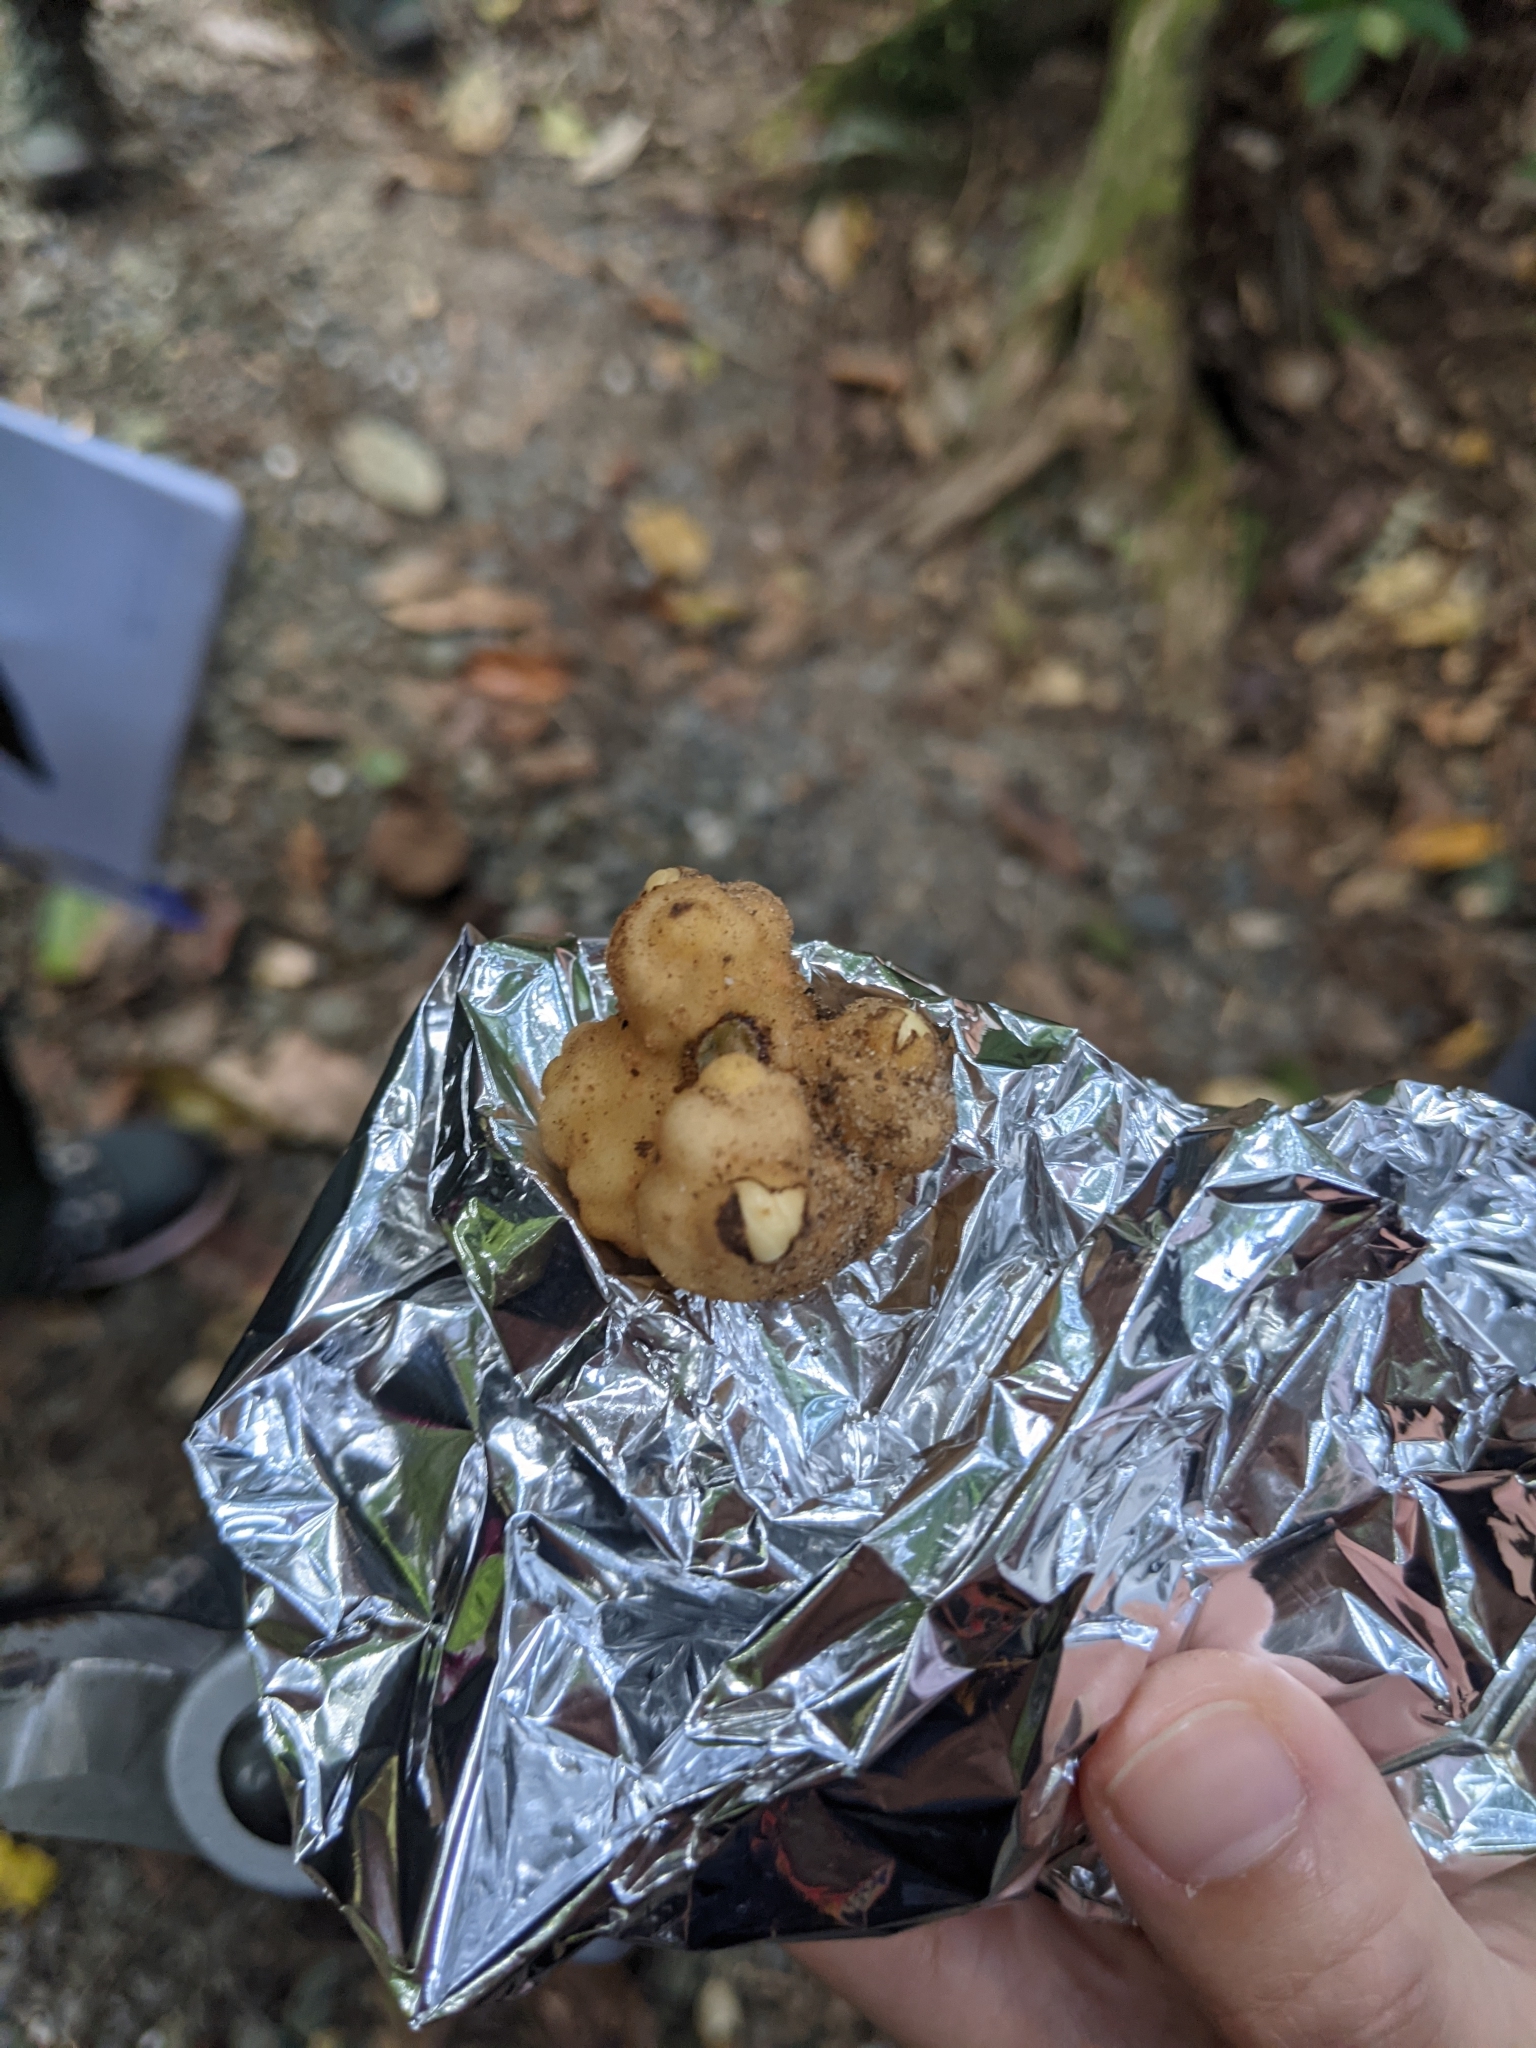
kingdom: Plantae
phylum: Tracheophyta
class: Magnoliopsida
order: Santalales
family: Balanophoraceae
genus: Balanophora
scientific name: Balanophora fungosa
